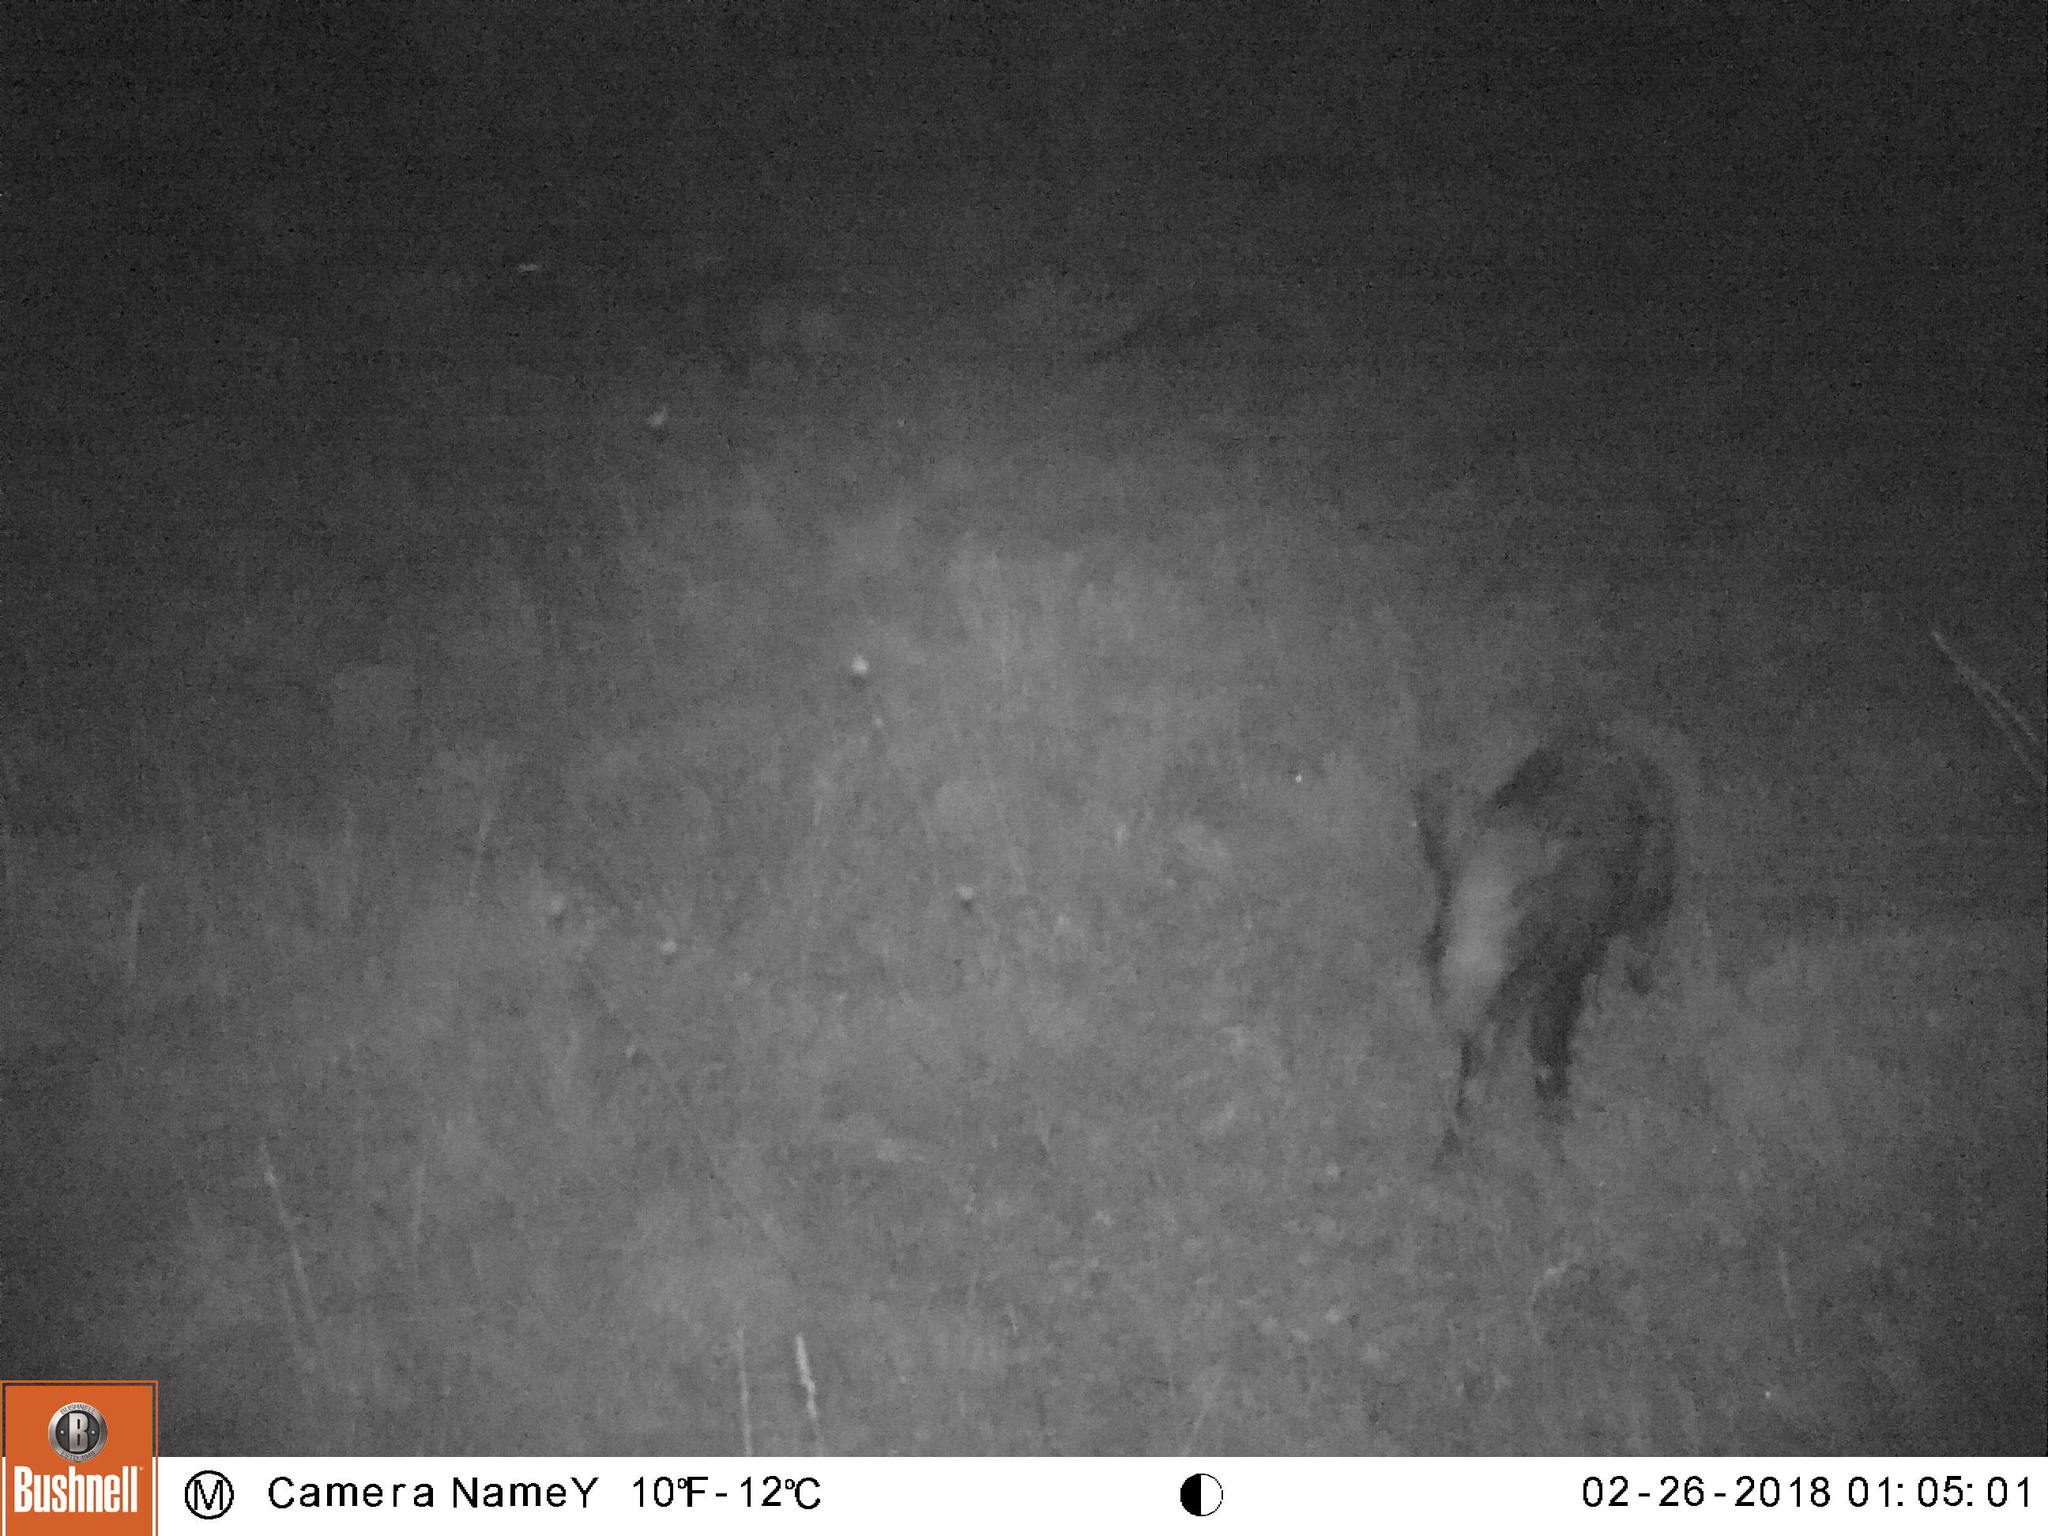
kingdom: Animalia
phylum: Chordata
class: Mammalia
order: Artiodactyla
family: Suidae
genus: Sus
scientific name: Sus scrofa
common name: Wild boar
